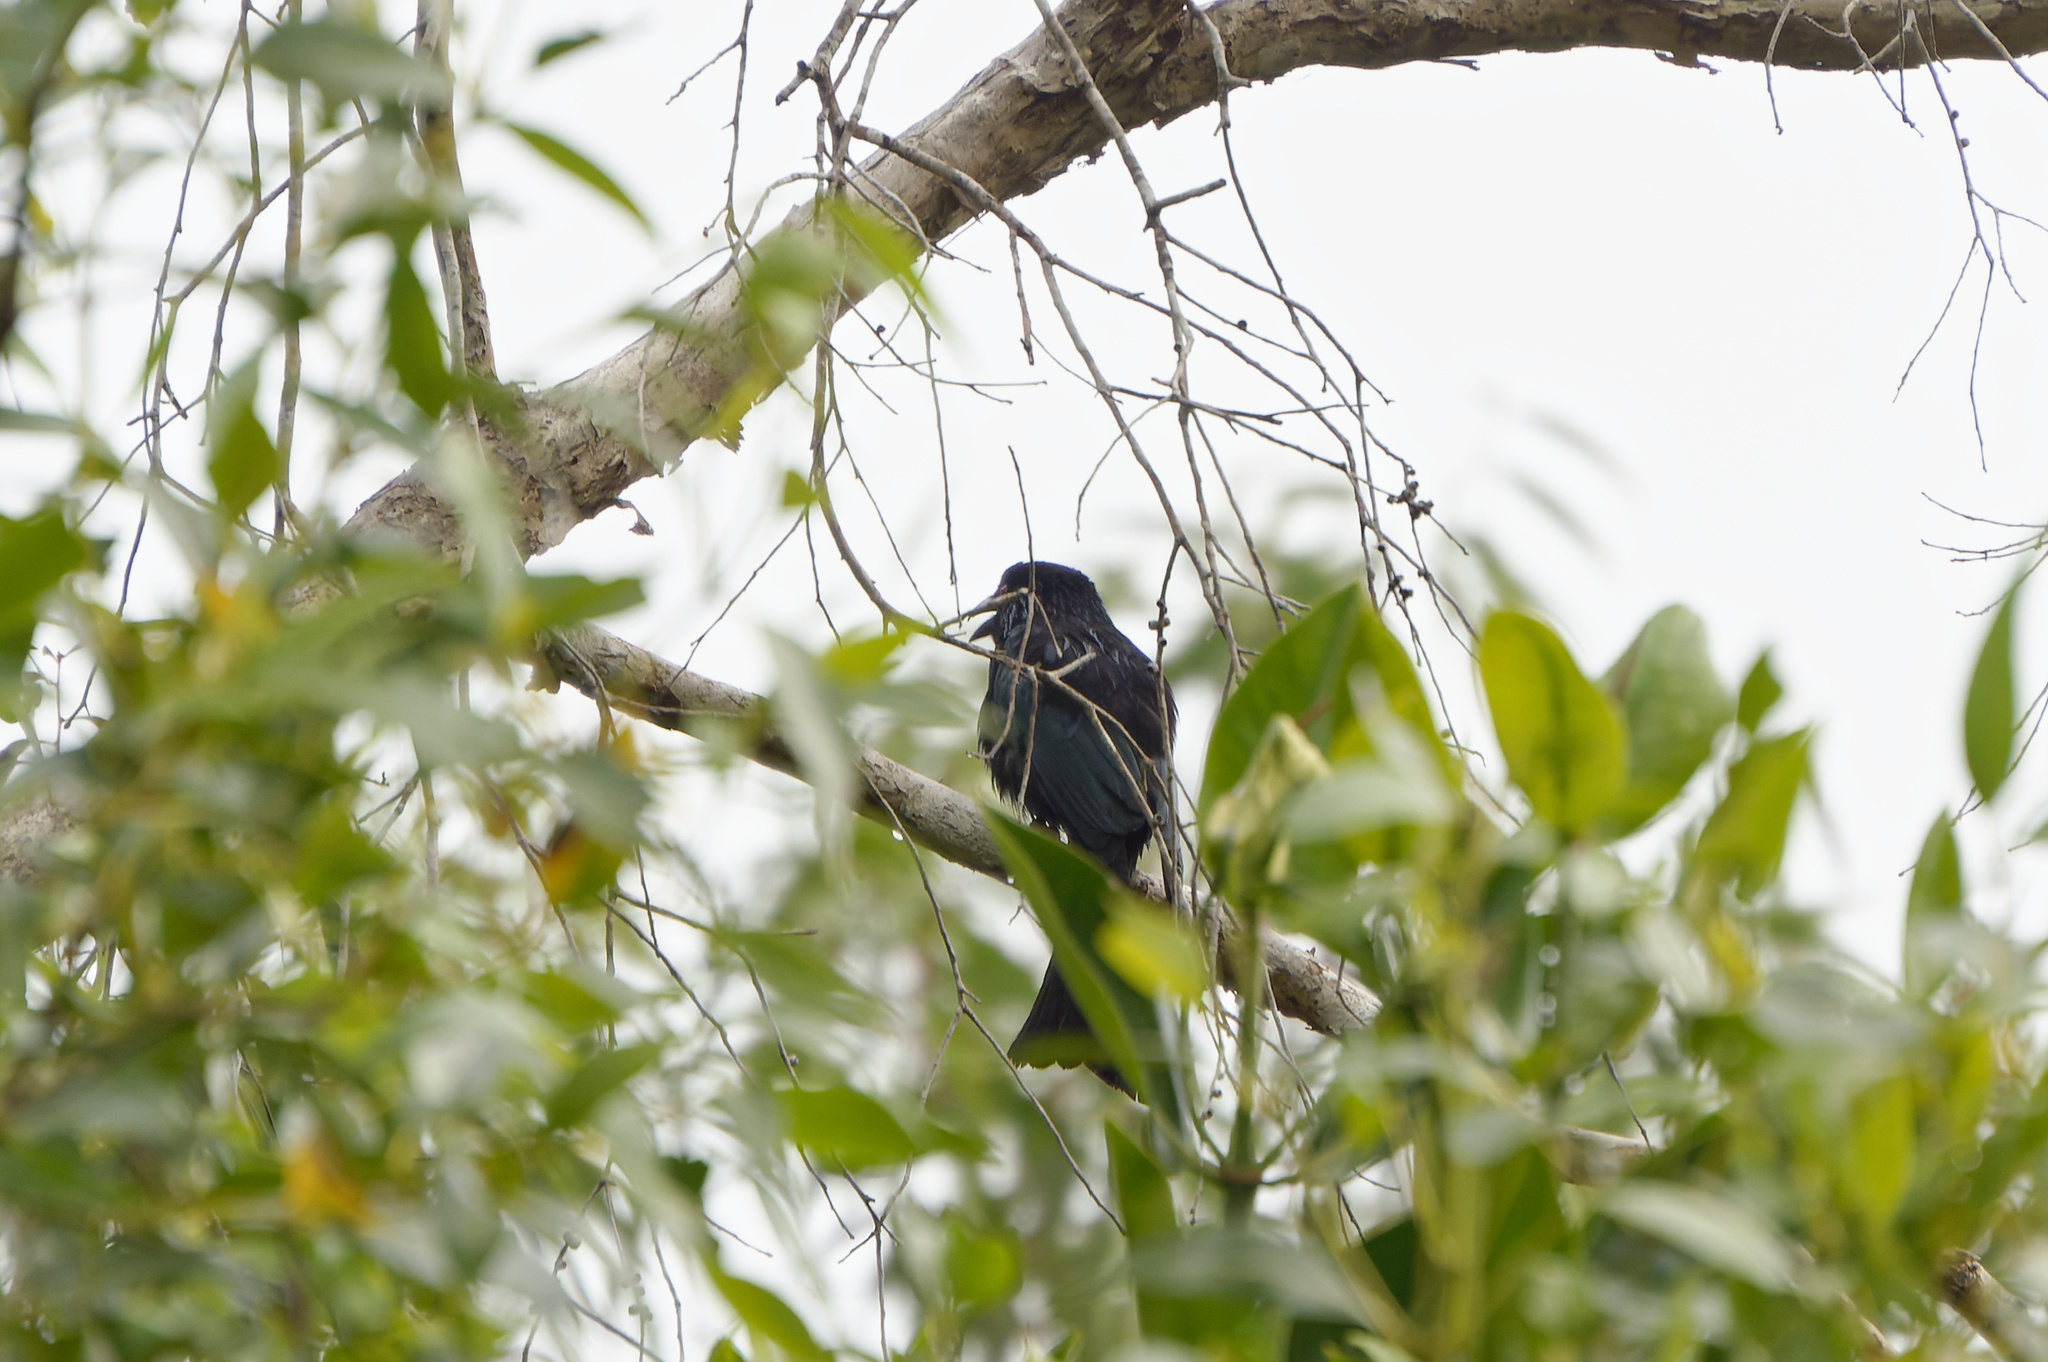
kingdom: Animalia
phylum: Chordata
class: Aves
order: Passeriformes
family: Dicruridae
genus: Dicrurus
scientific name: Dicrurus bracteatus
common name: Spangled drongo
